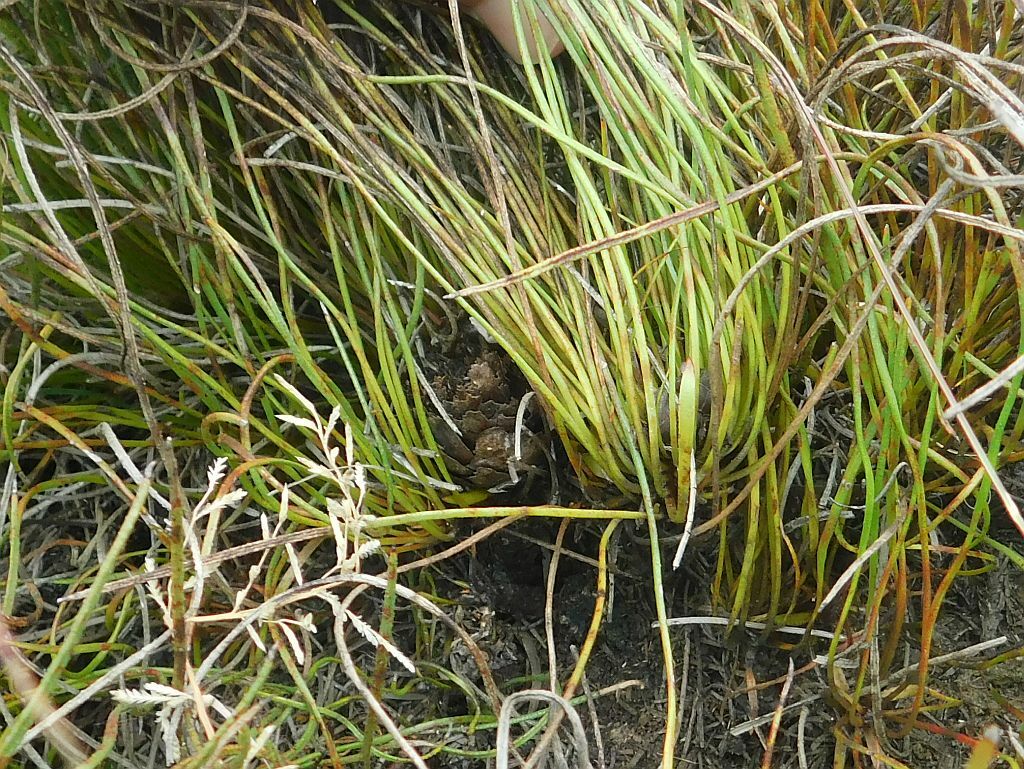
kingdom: Plantae
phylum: Tracheophyta
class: Magnoliopsida
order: Proteales
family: Proteaceae
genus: Protea
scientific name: Protea restionifolia
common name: Reed-leaf sugarbush
